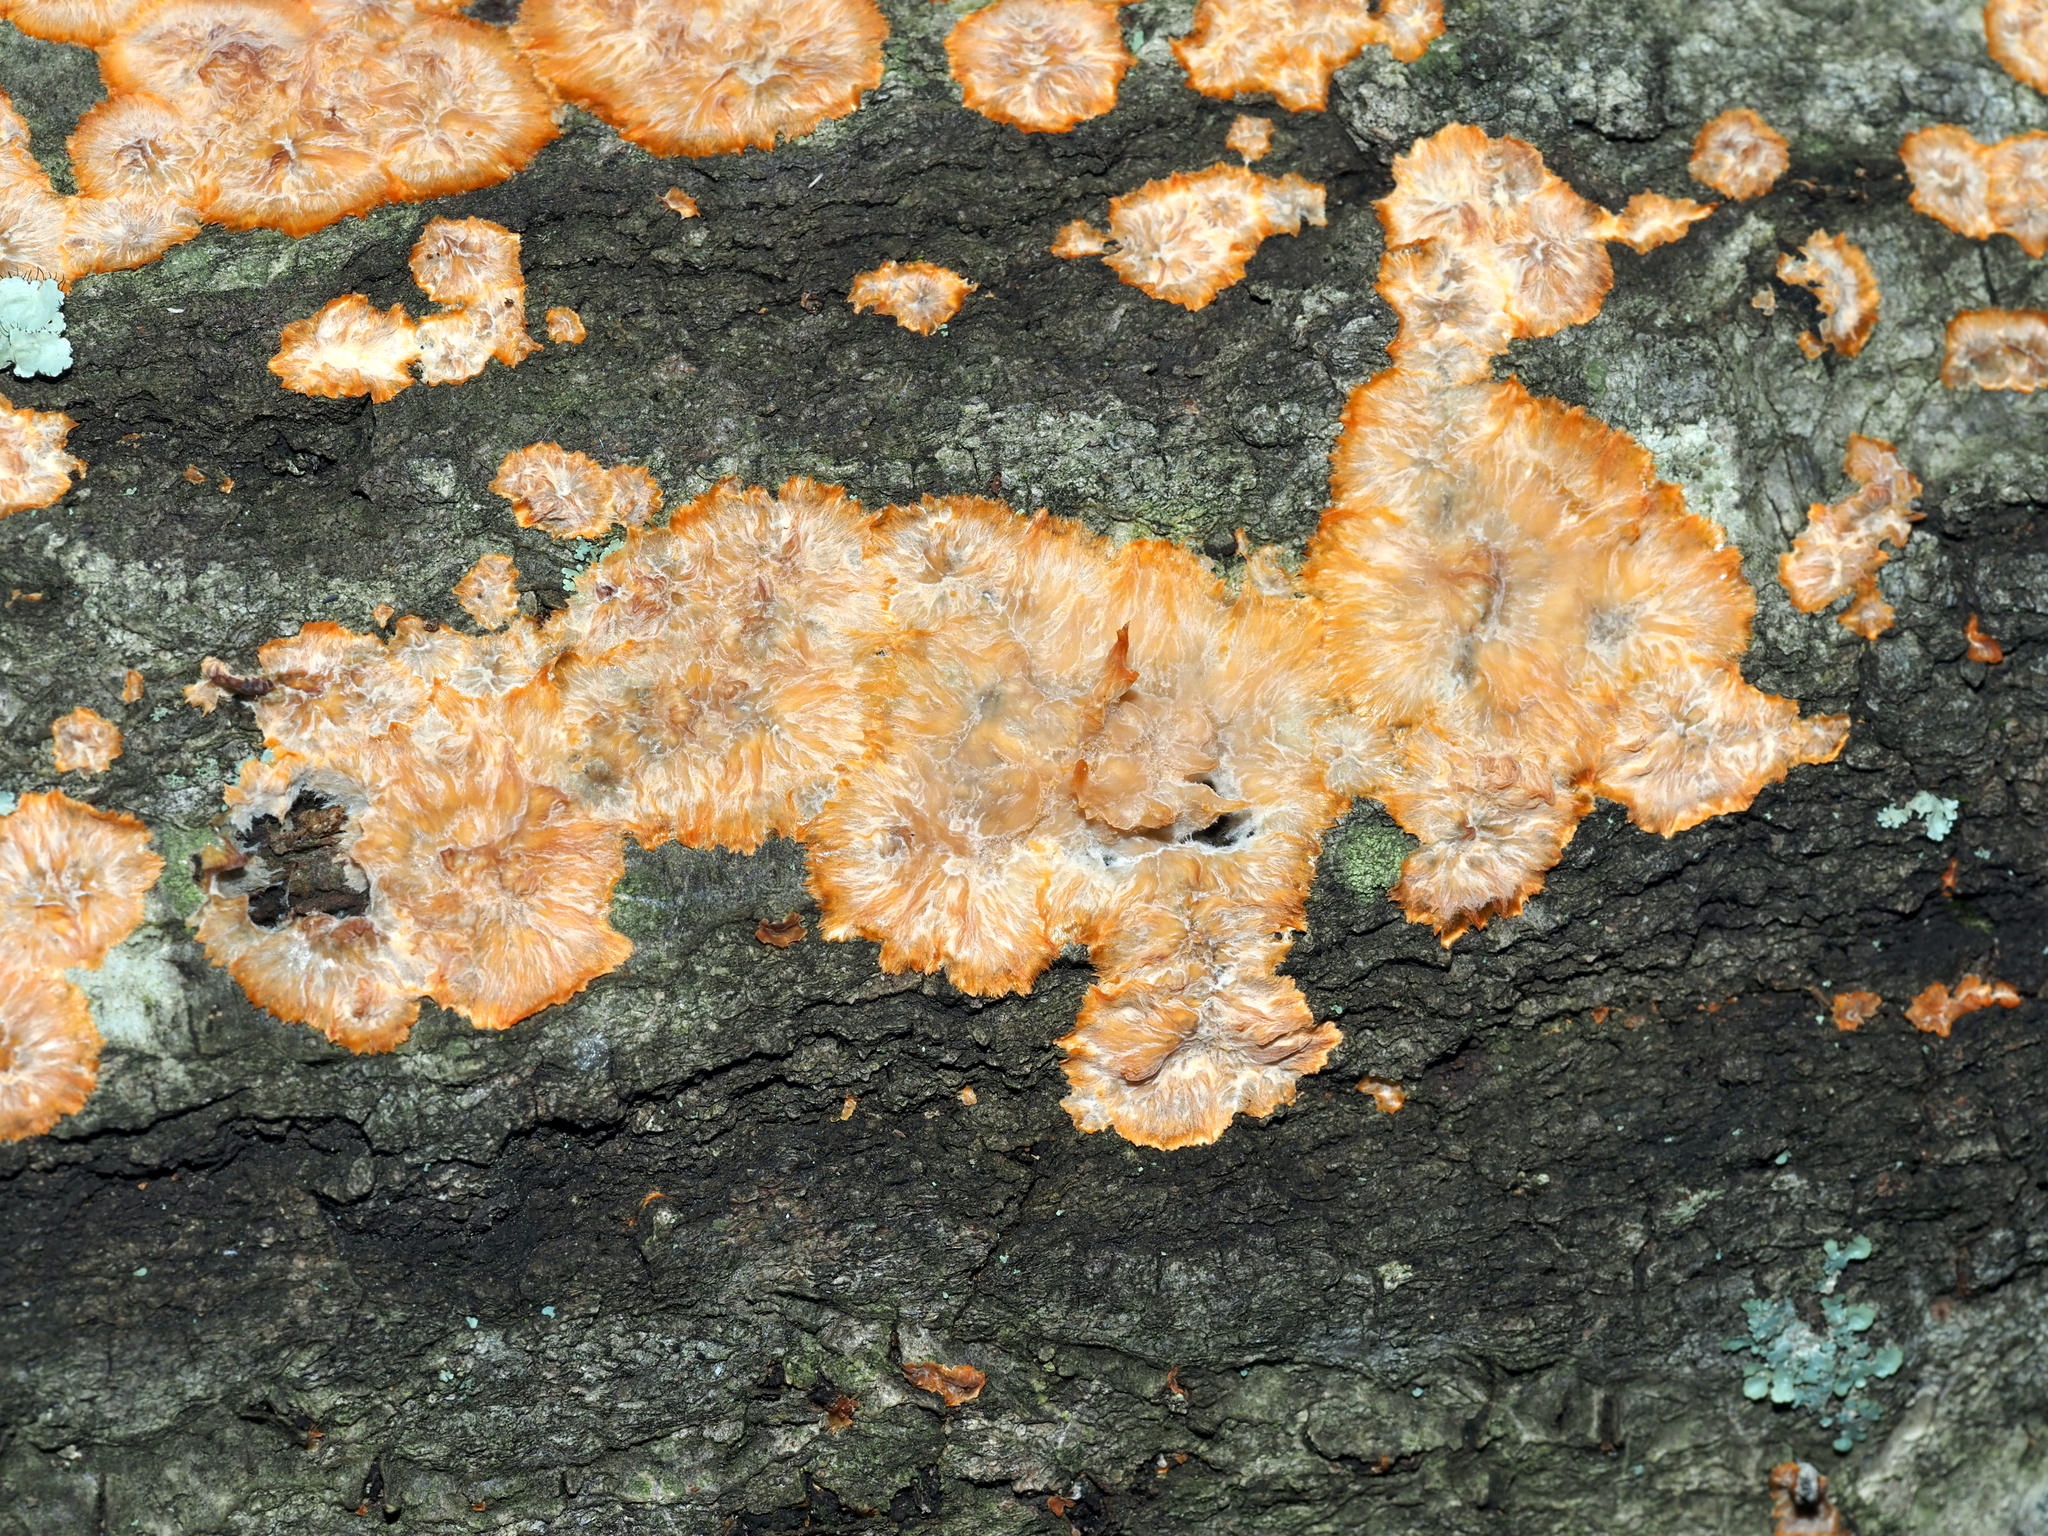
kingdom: Fungi
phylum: Basidiomycota
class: Agaricomycetes
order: Polyporales
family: Meruliaceae
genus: Phlebia
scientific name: Phlebia radiata
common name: Wrinkled crust
